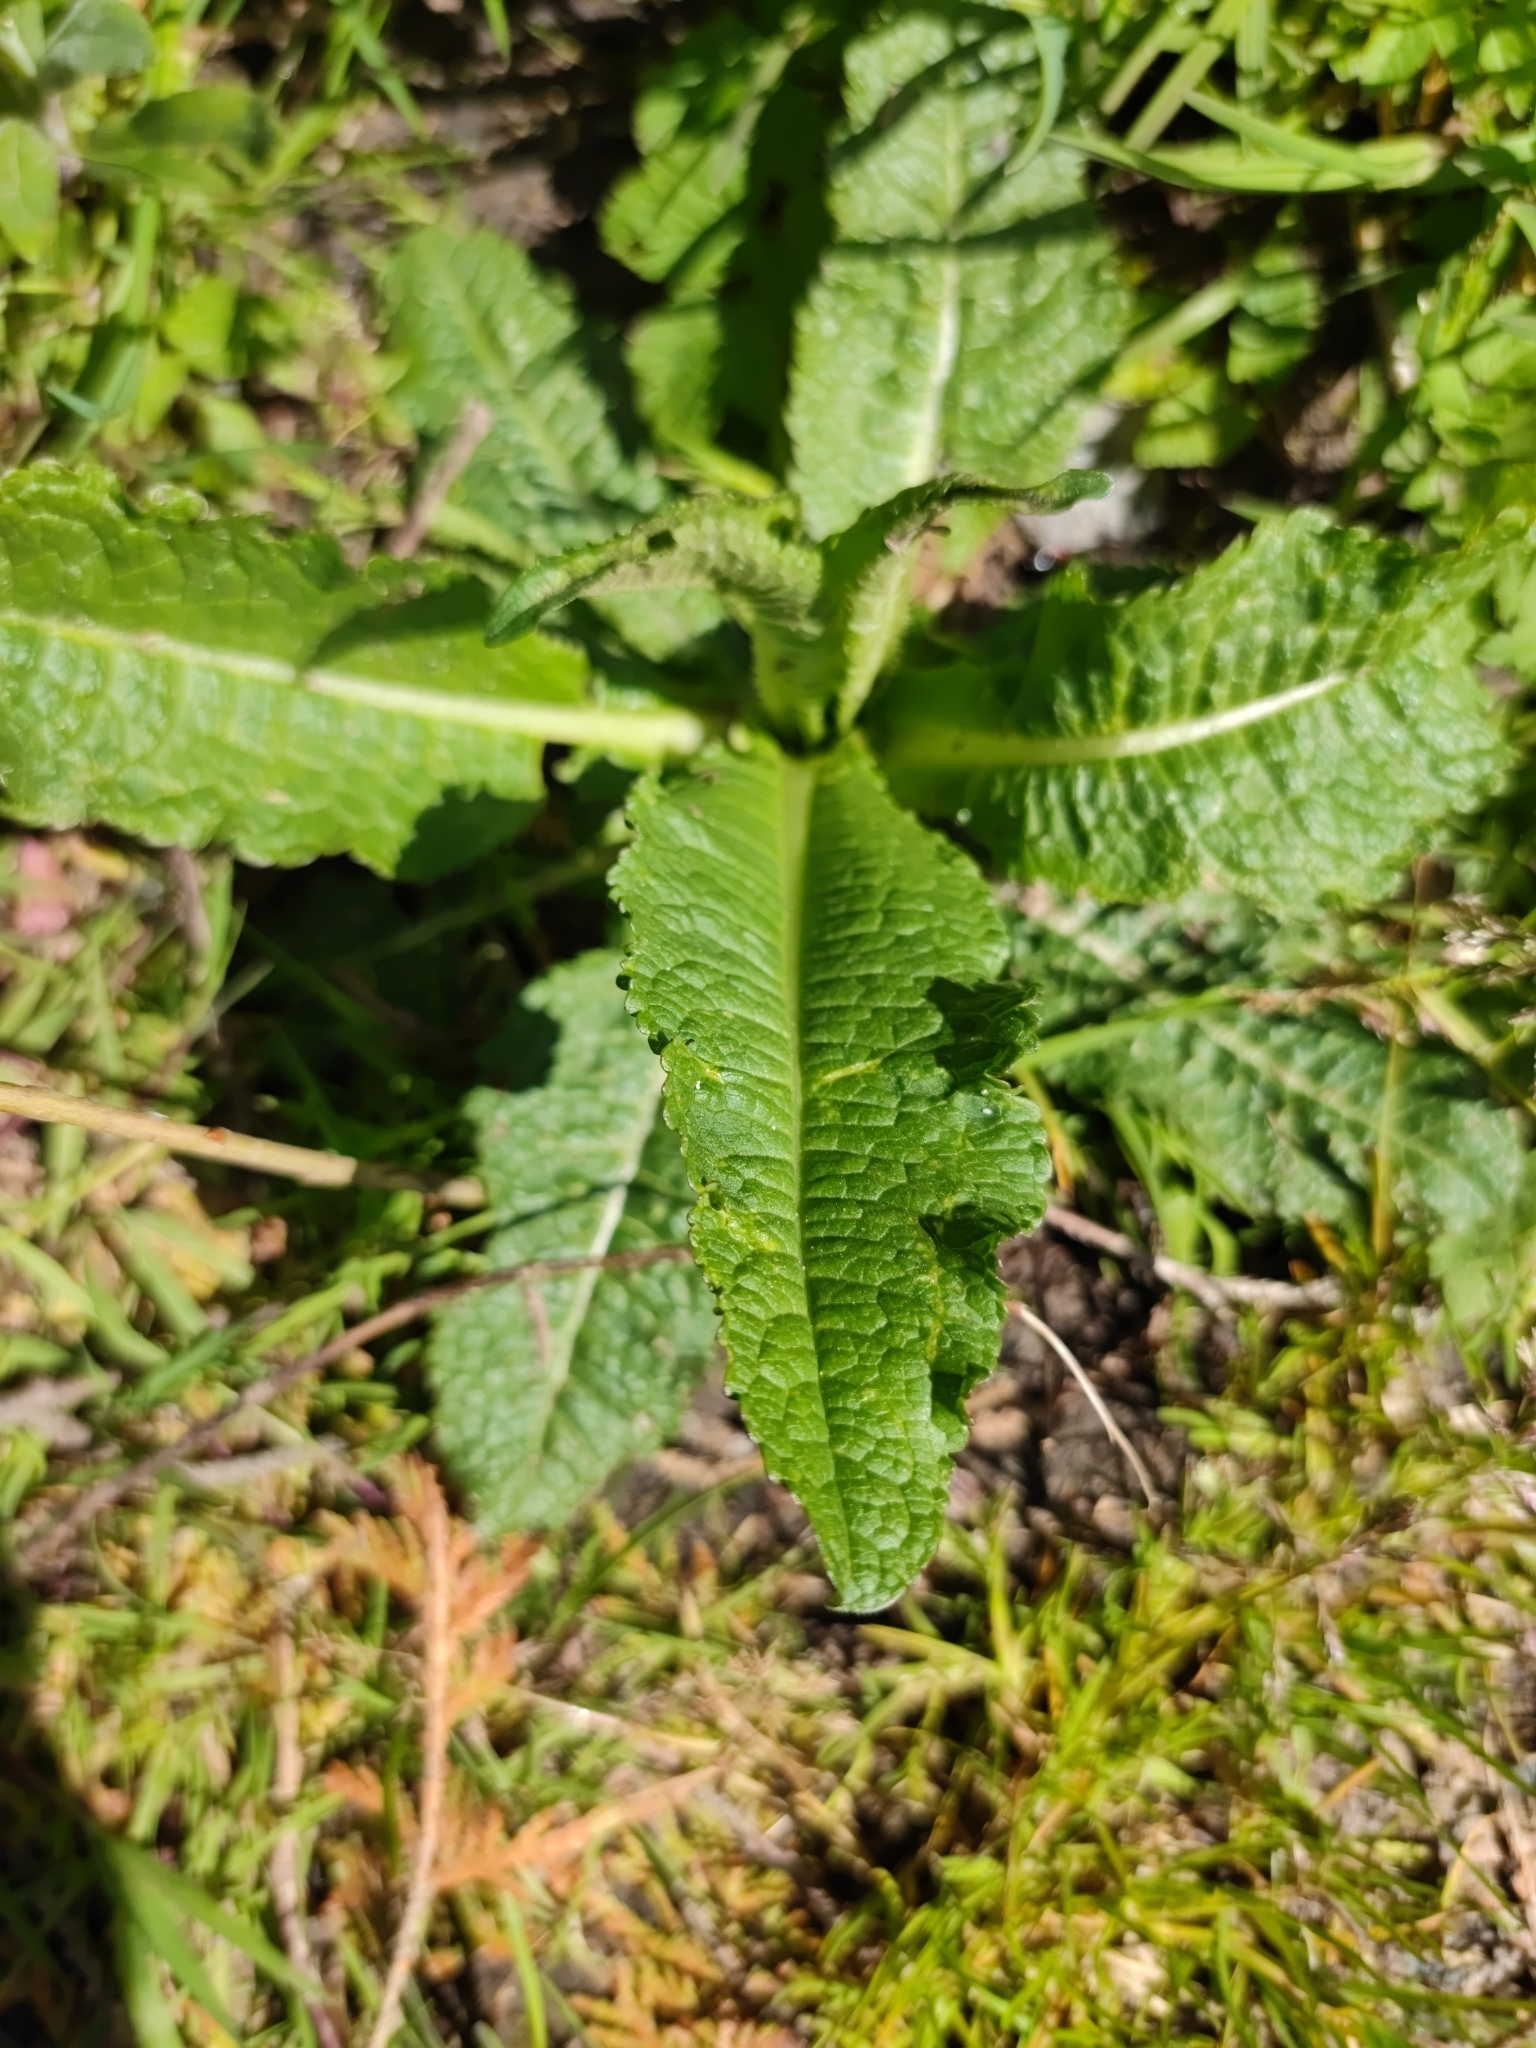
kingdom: Plantae
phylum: Tracheophyta
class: Magnoliopsida
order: Dipsacales
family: Caprifoliaceae
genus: Dipsacus
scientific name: Dipsacus fullonum
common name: Teasel
